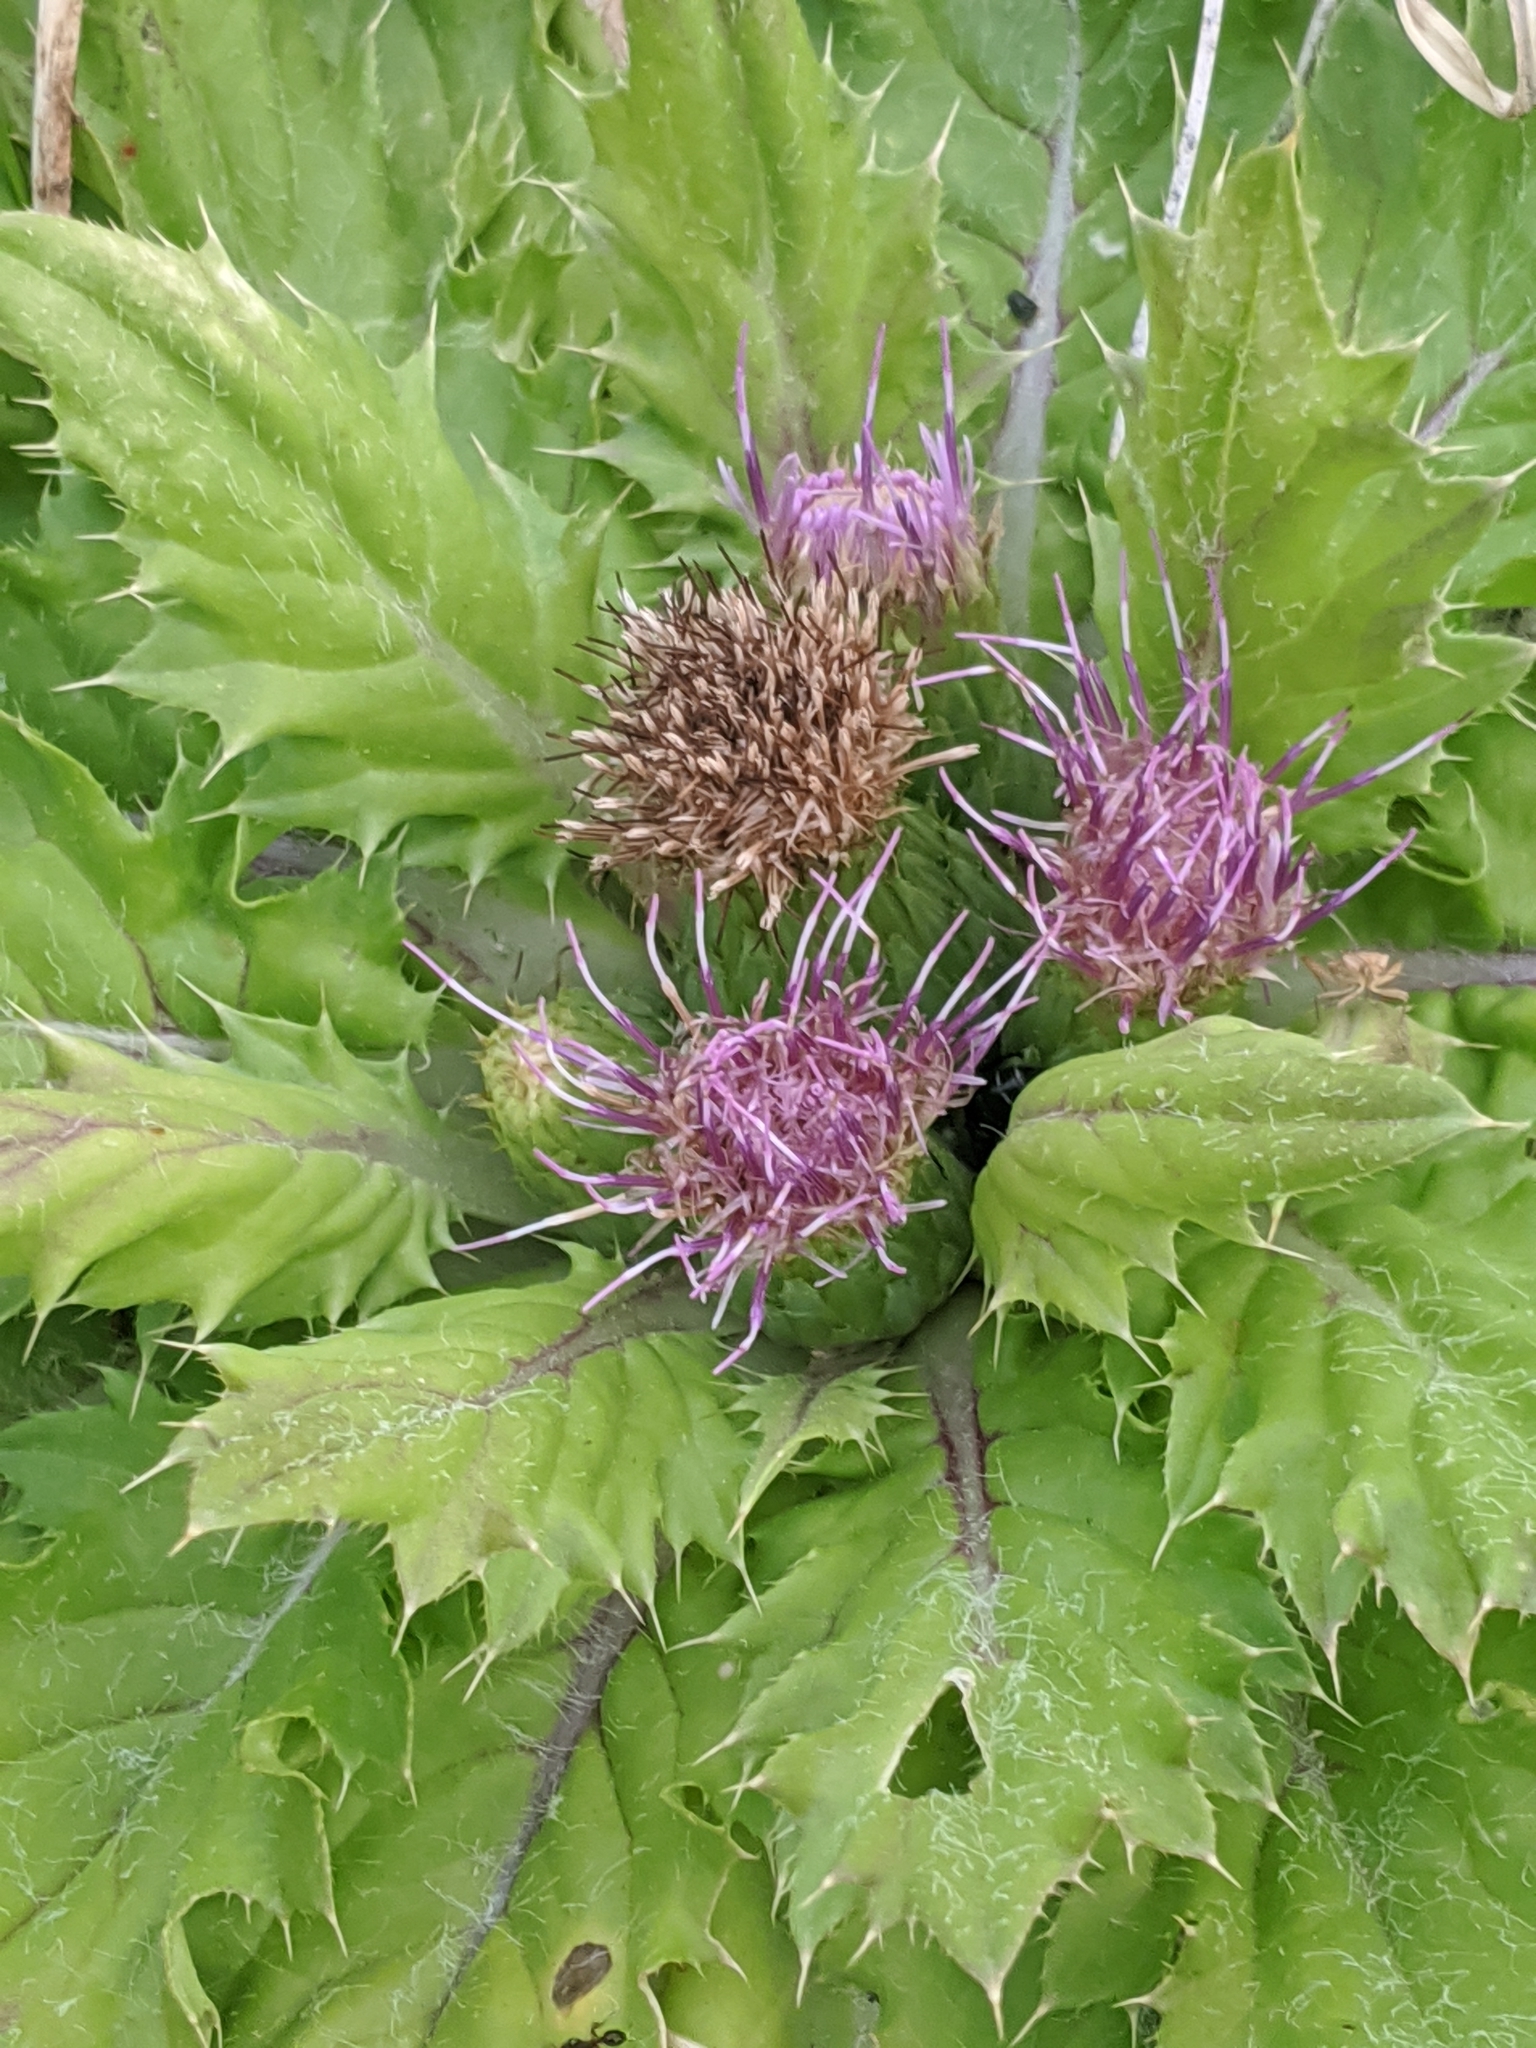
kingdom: Plantae
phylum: Tracheophyta
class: Magnoliopsida
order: Asterales
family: Asteraceae
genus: Cirsium
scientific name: Cirsium congdonii
